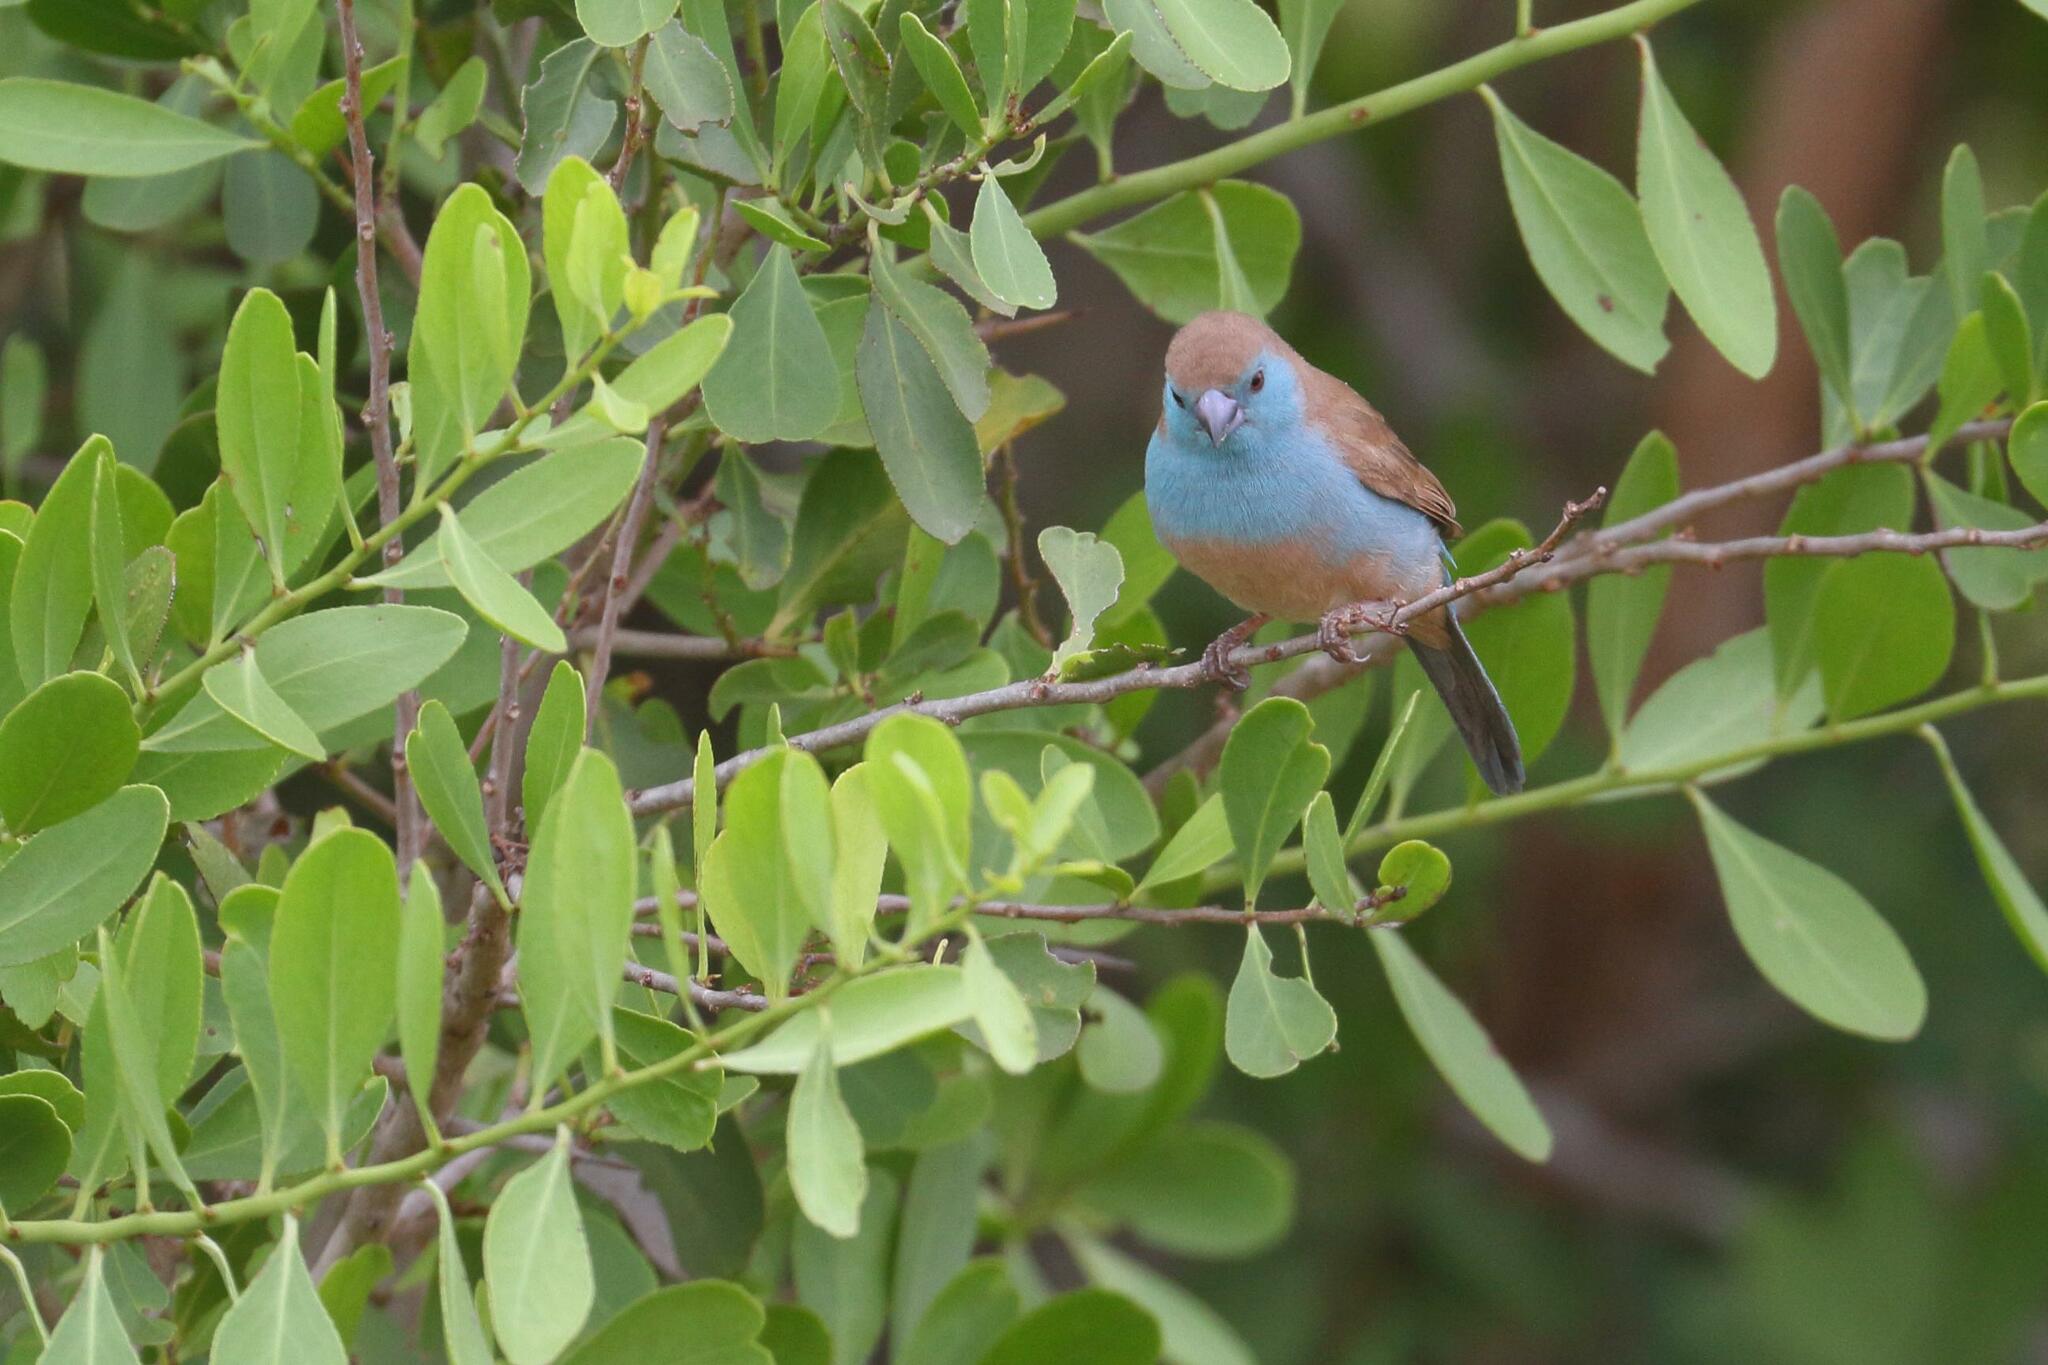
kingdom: Animalia
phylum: Chordata
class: Aves
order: Passeriformes
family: Estrildidae
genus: Uraeginthus
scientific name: Uraeginthus angolensis
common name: Blue waxbill
